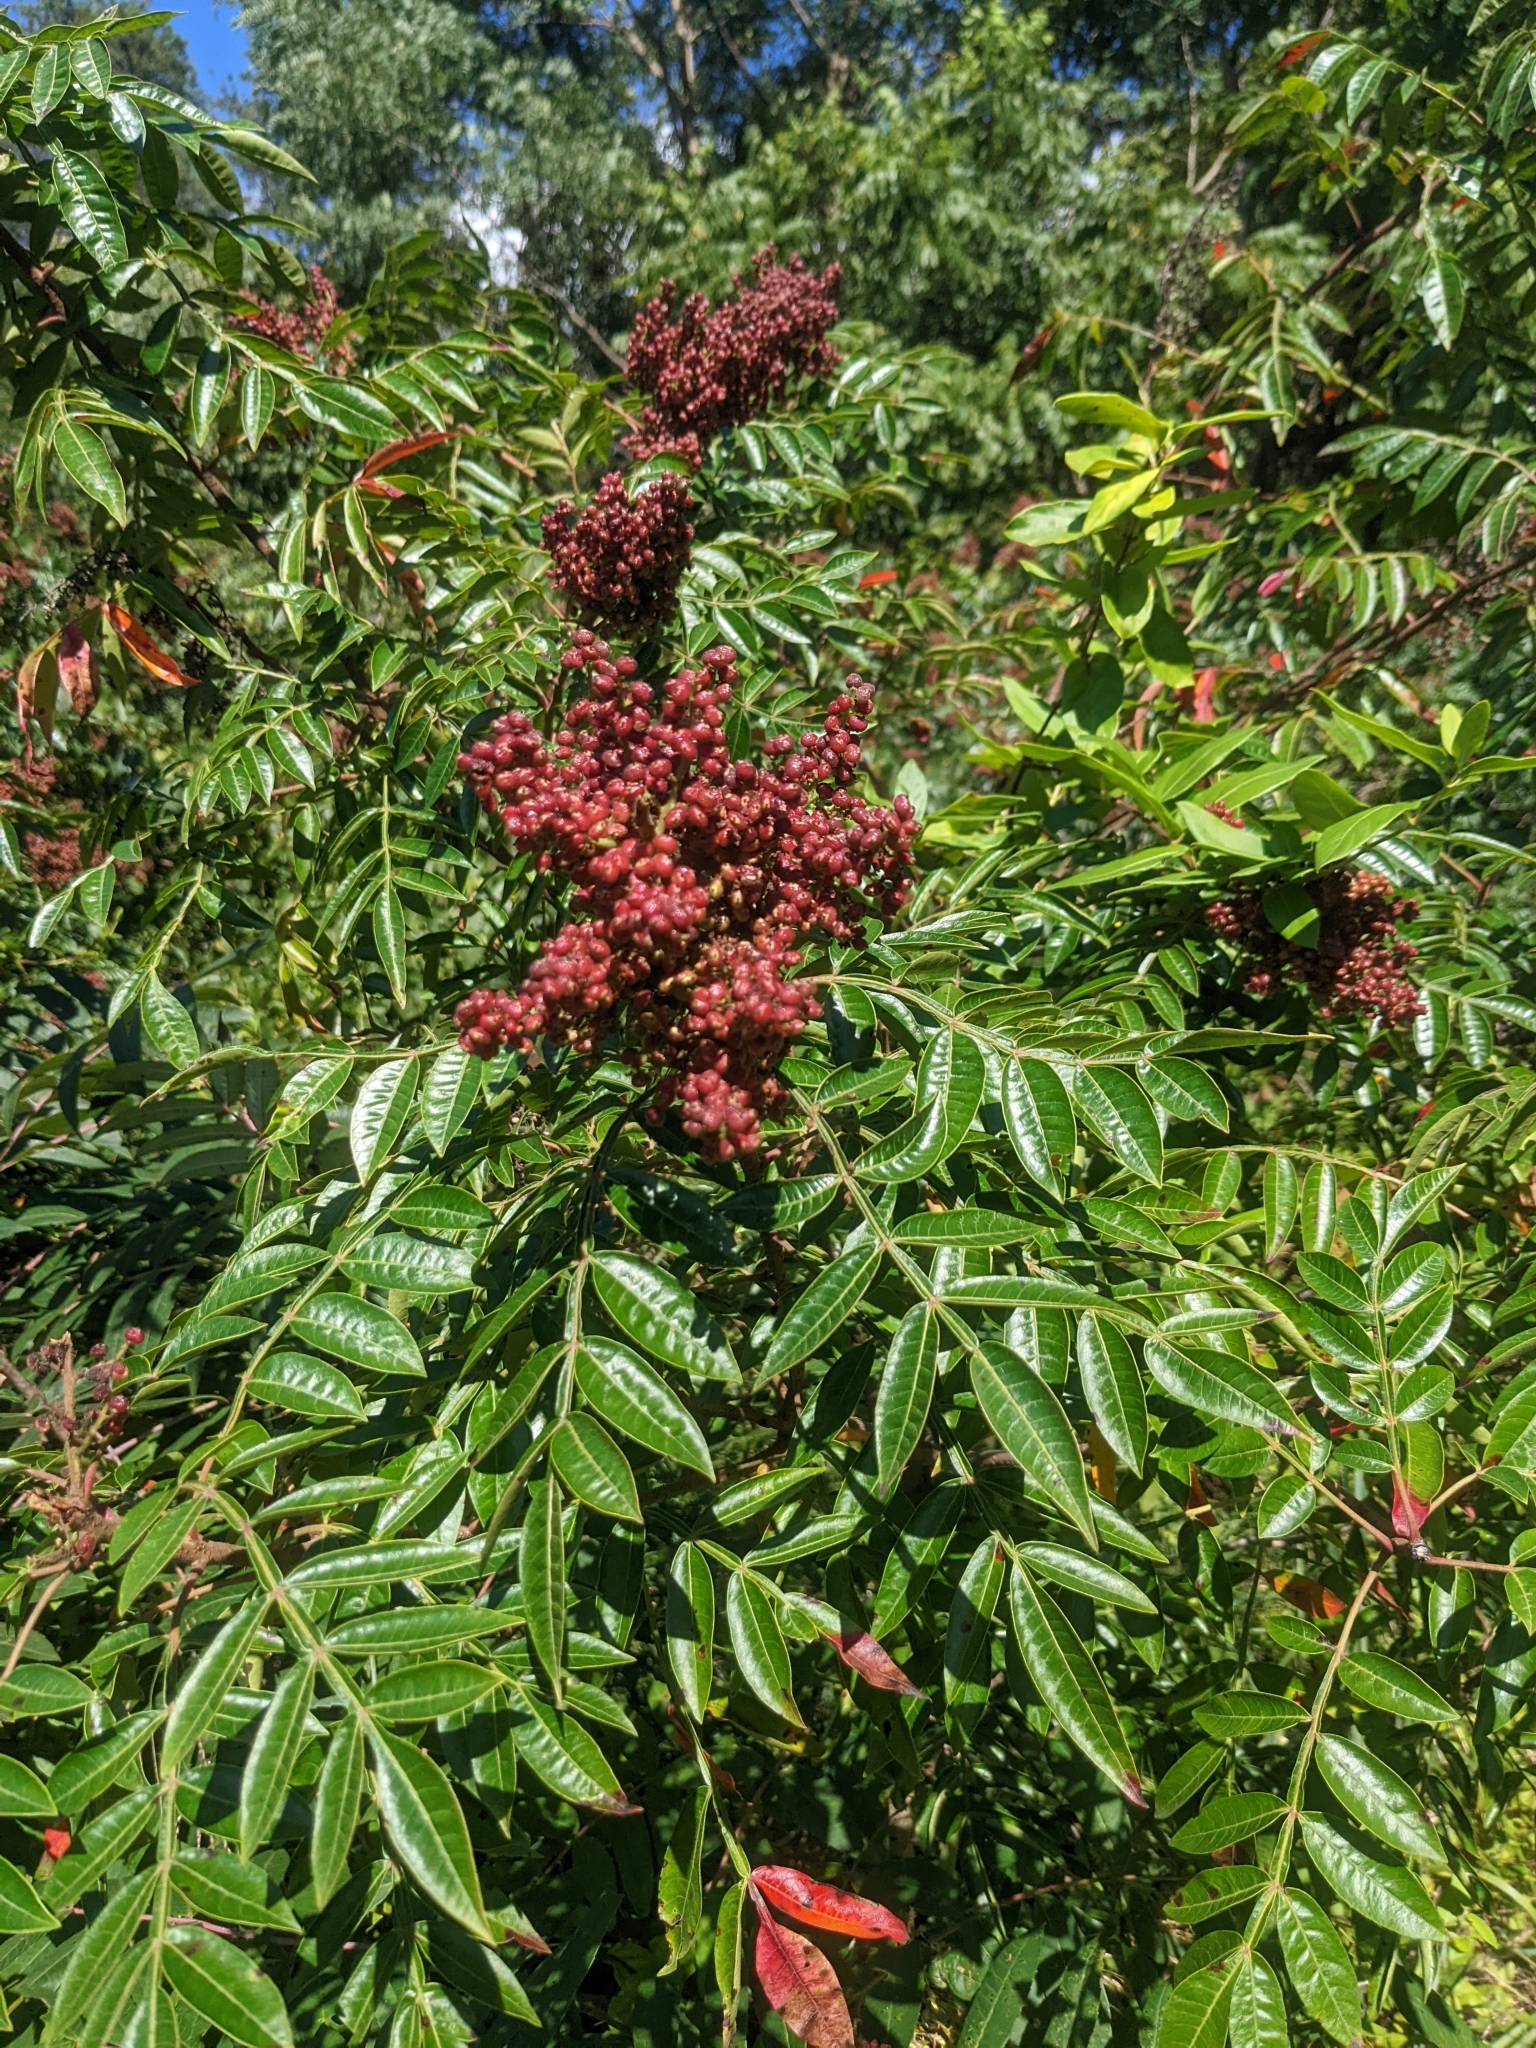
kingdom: Plantae
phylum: Tracheophyta
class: Magnoliopsida
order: Sapindales
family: Anacardiaceae
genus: Rhus
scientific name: Rhus copallina
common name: Shining sumac
